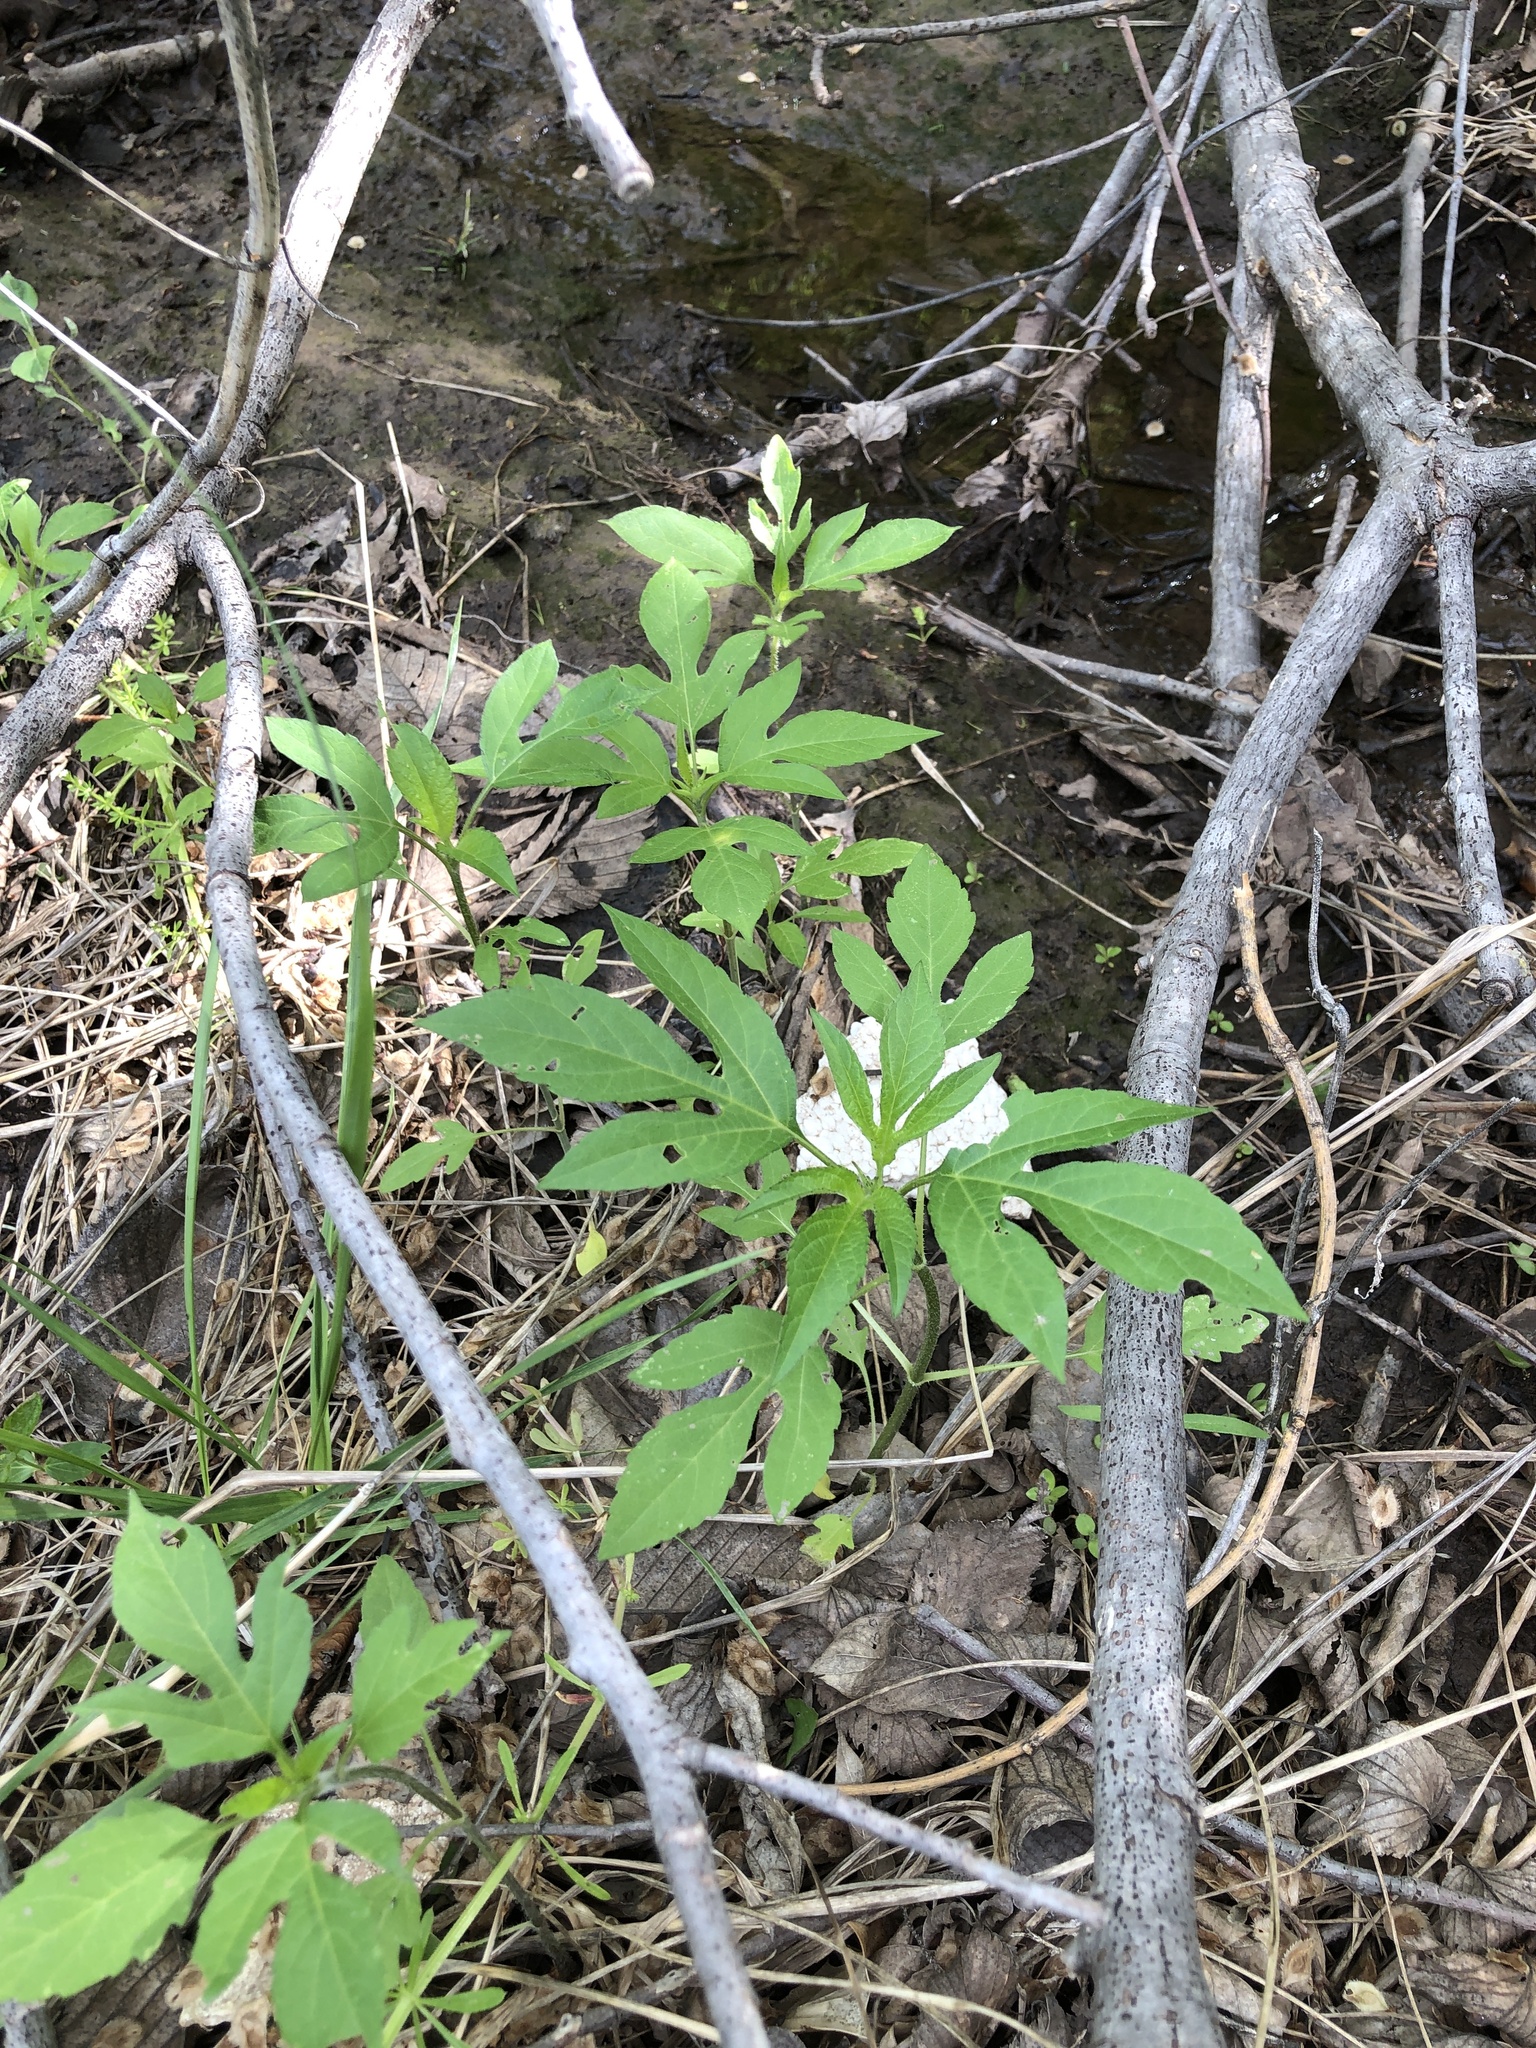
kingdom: Plantae
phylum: Tracheophyta
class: Magnoliopsida
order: Asterales
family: Asteraceae
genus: Ambrosia
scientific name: Ambrosia trifida
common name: Giant ragweed
